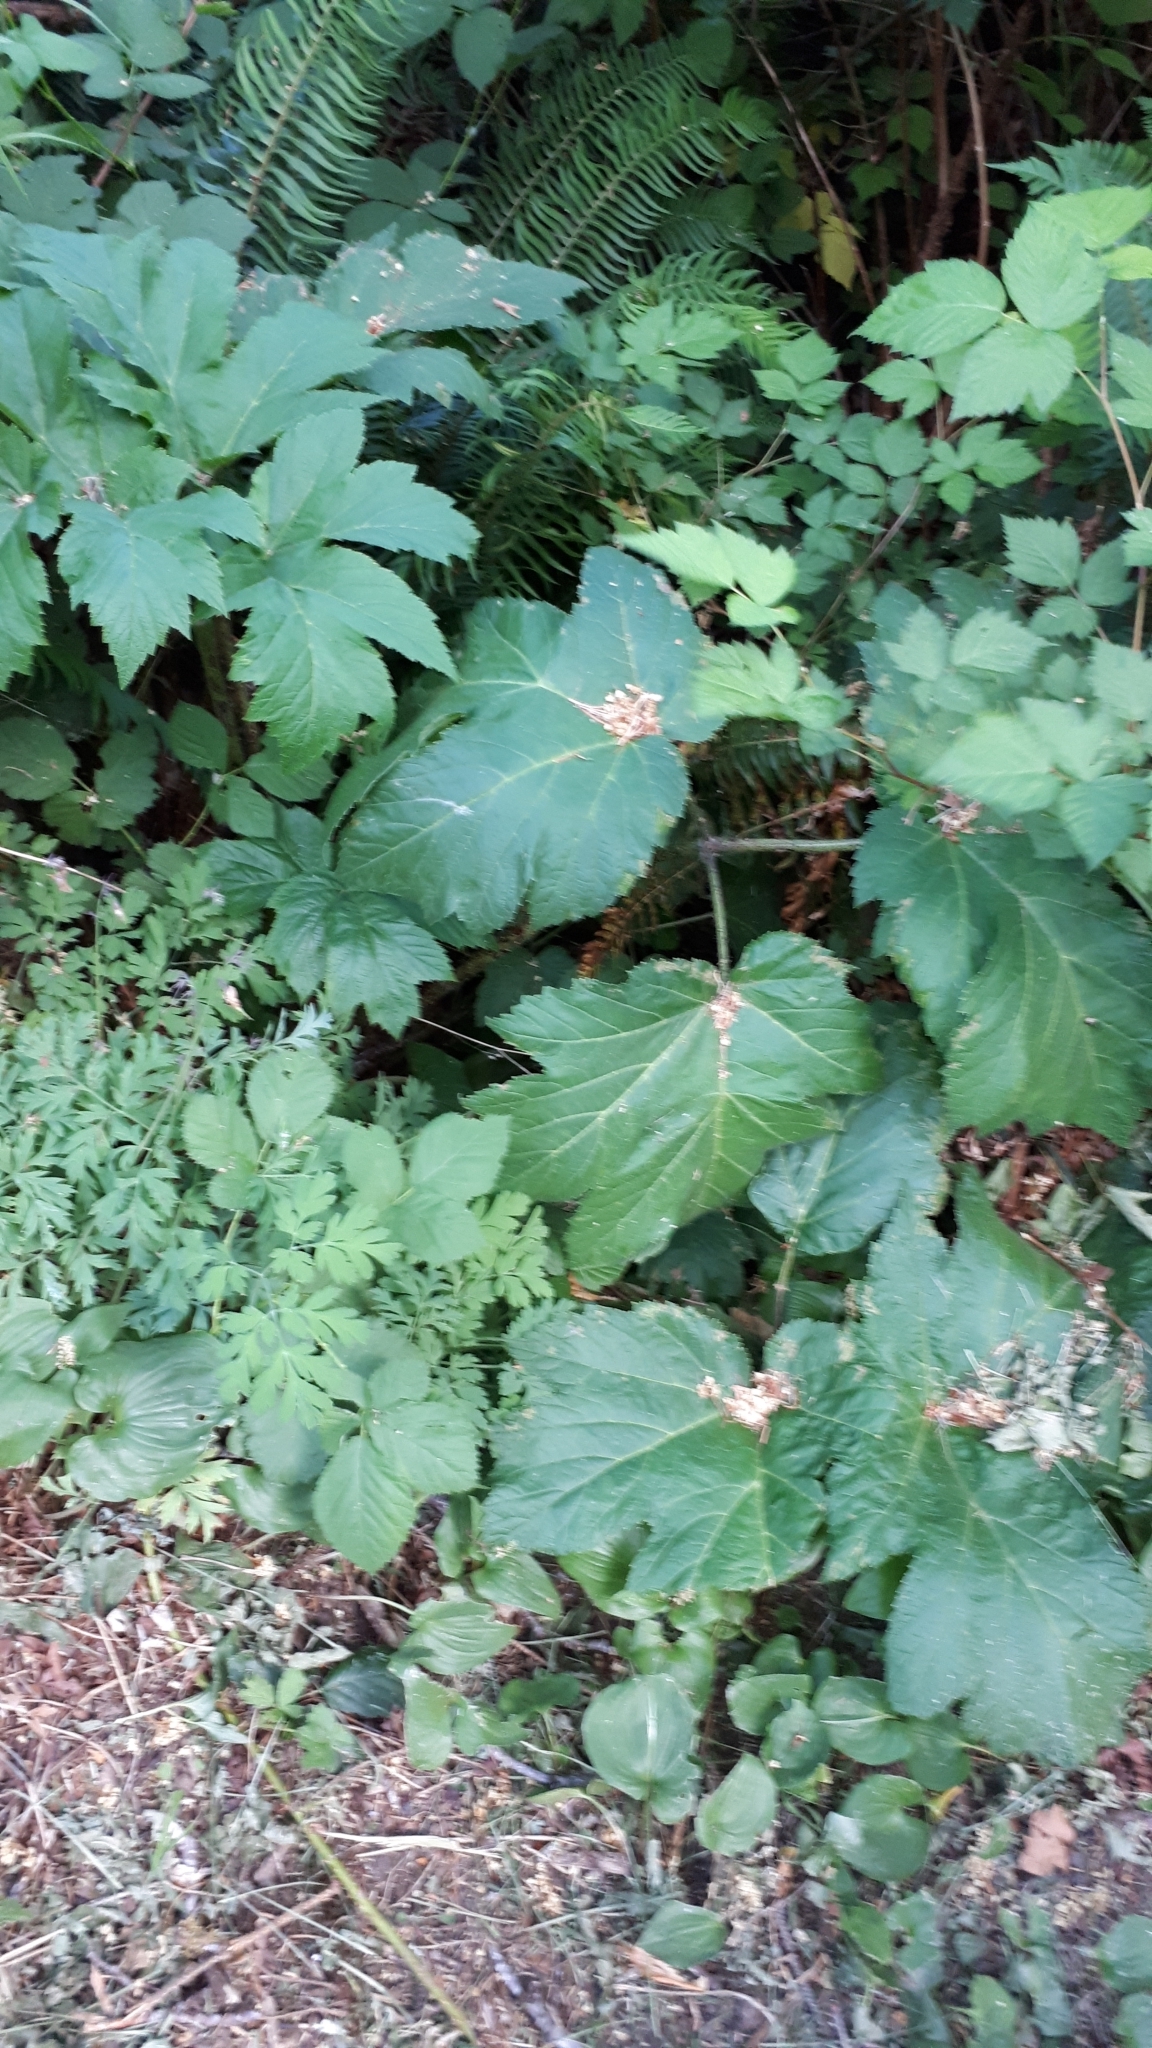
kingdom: Plantae
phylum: Tracheophyta
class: Magnoliopsida
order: Apiales
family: Araliaceae
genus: Oplopanax
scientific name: Oplopanax horridus
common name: Devil's walking-stick
